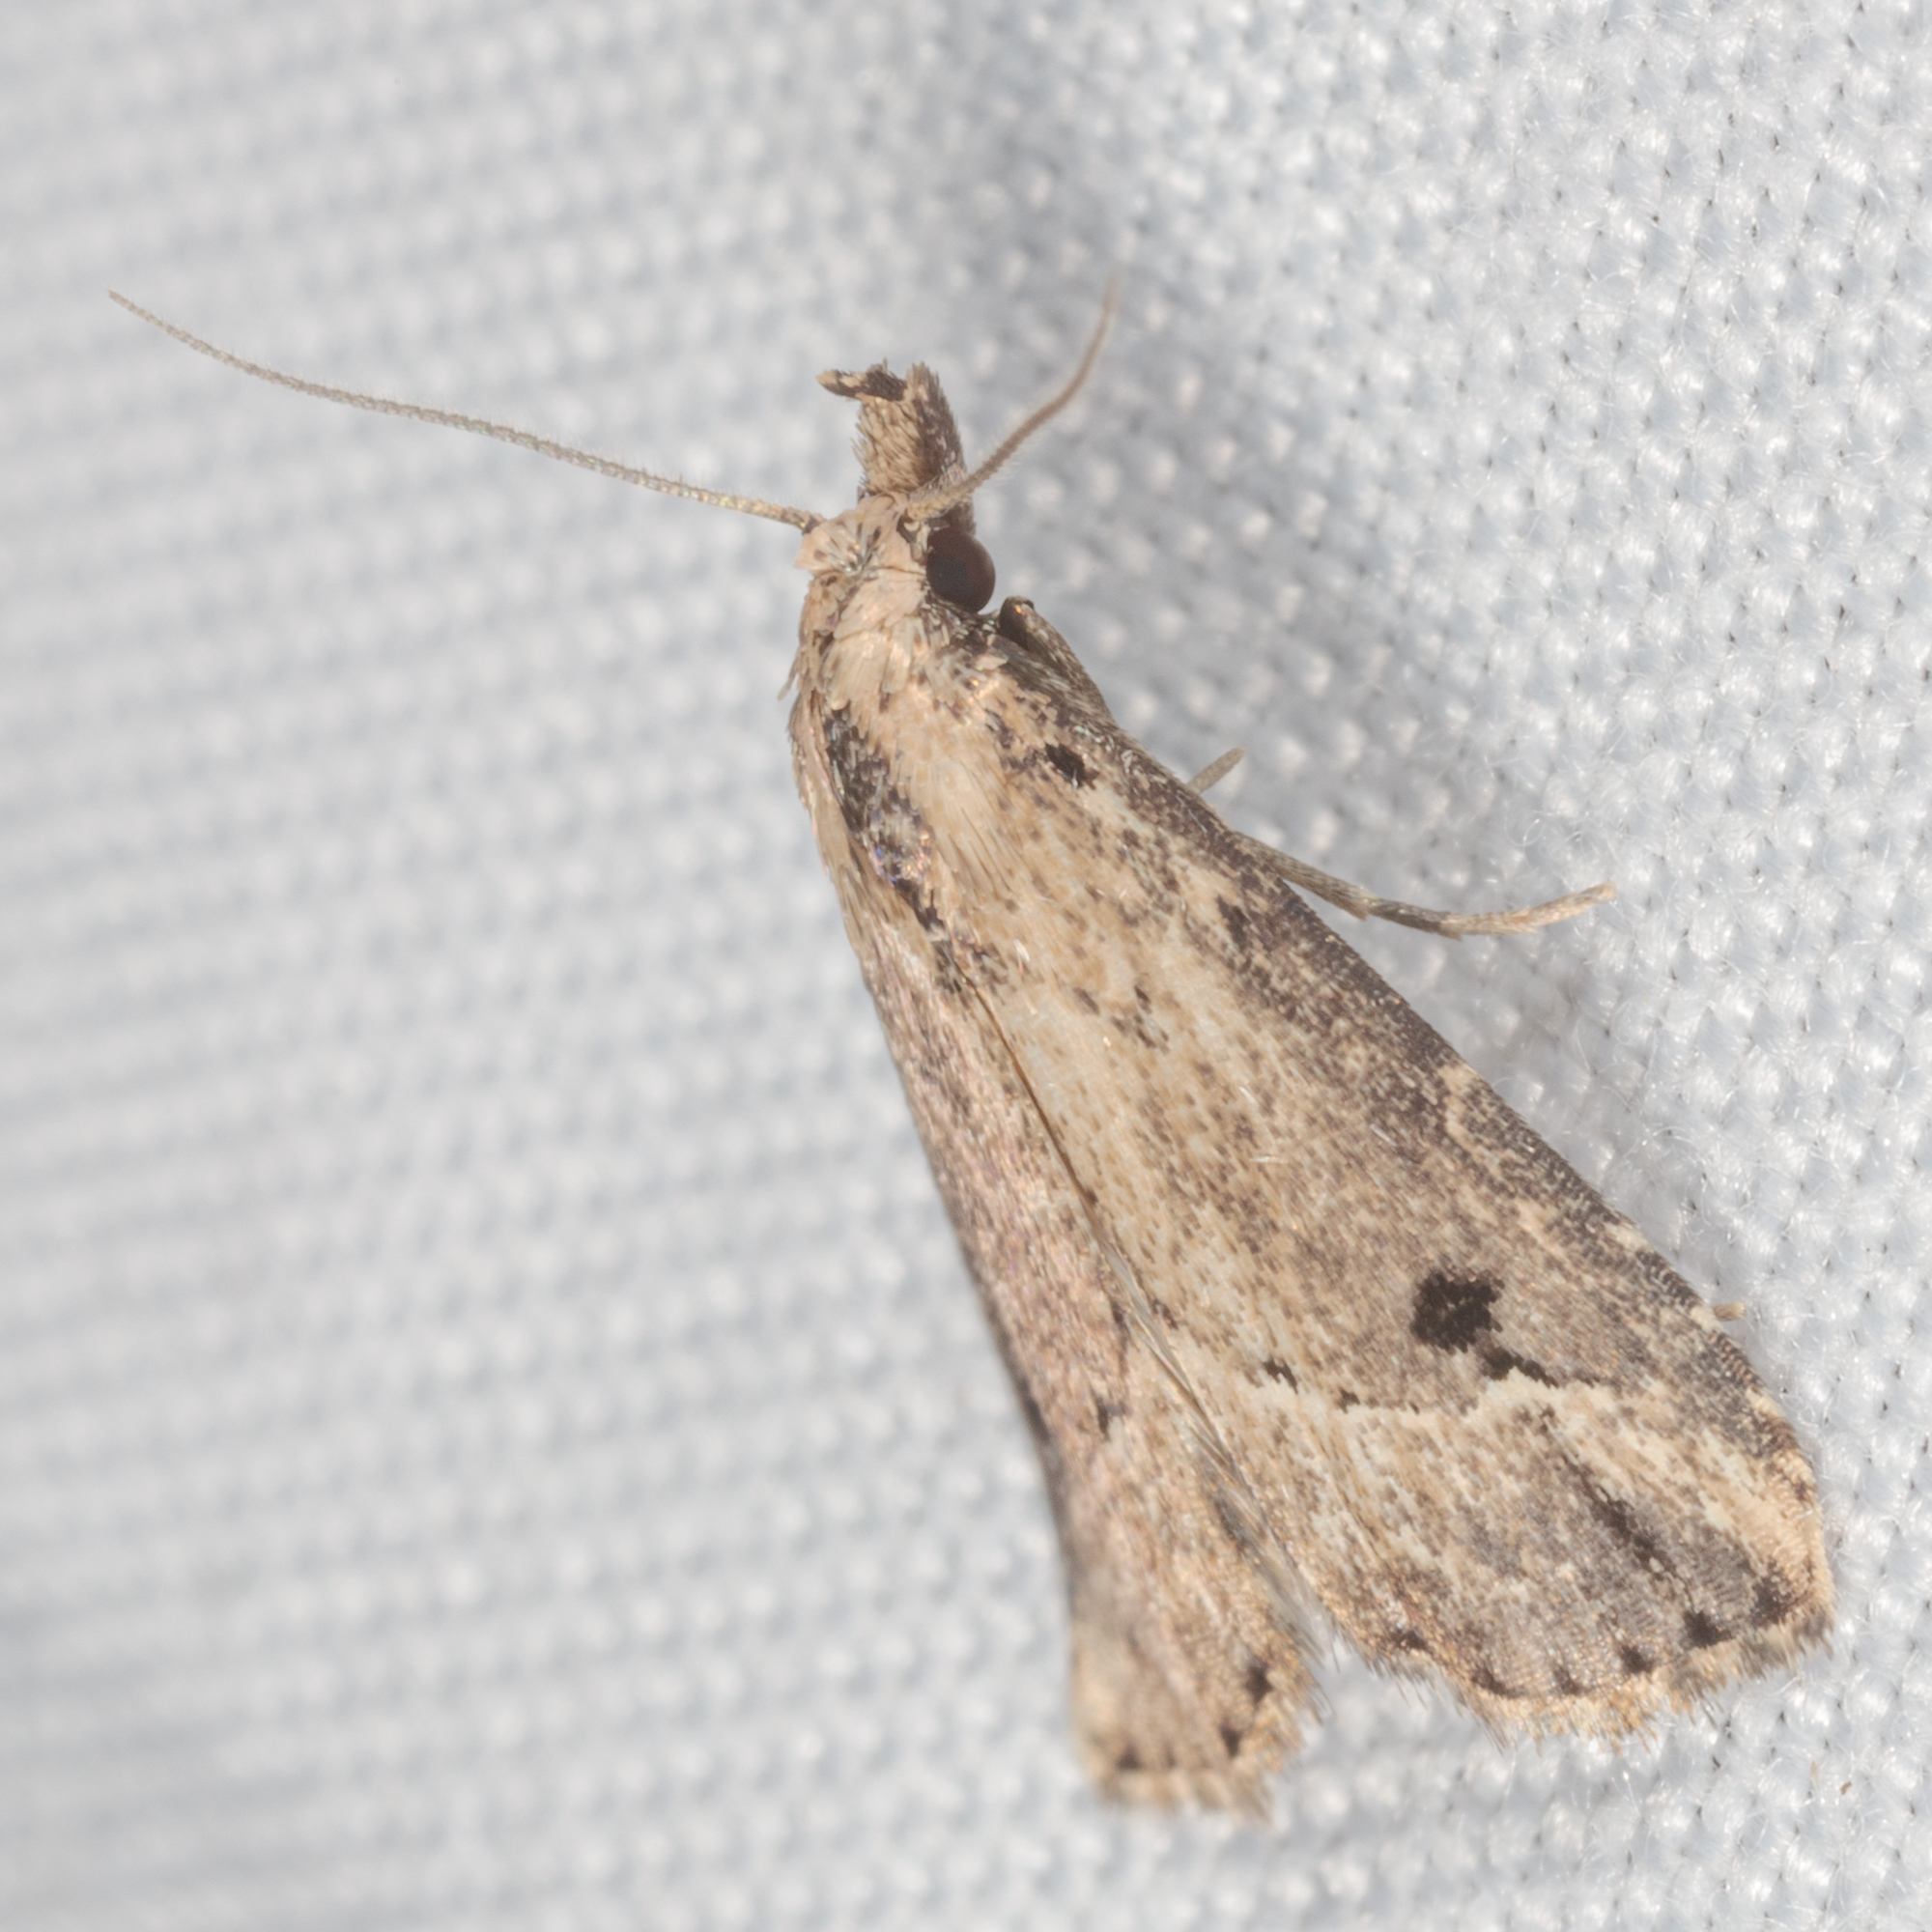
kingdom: Animalia
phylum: Arthropoda
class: Insecta
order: Lepidoptera
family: Erebidae
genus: Schrankia
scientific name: Schrankia
